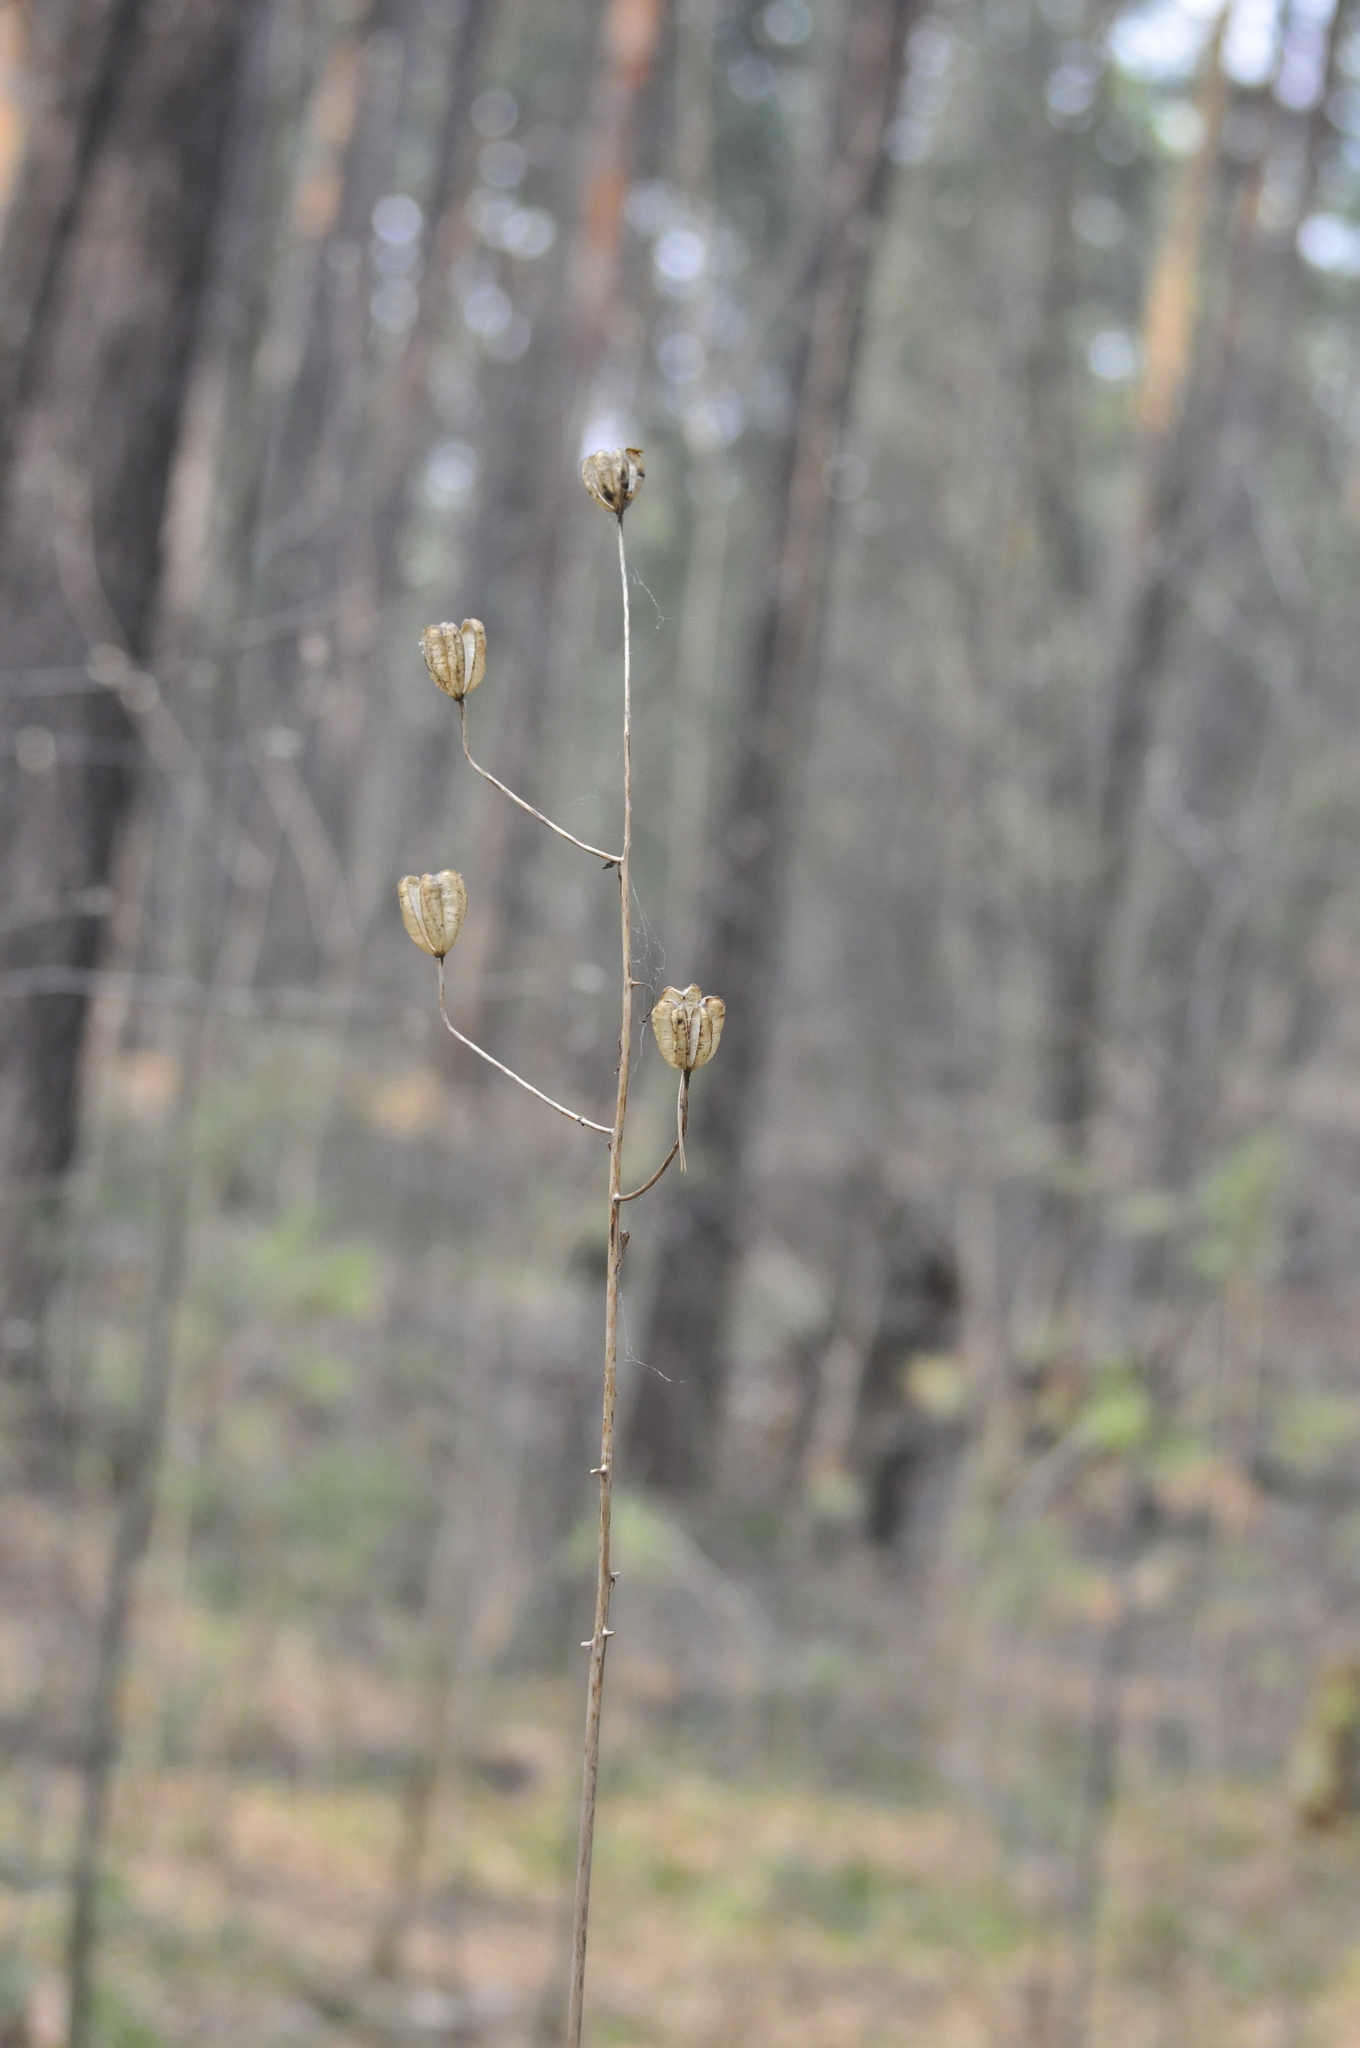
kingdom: Plantae
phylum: Tracheophyta
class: Liliopsida
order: Liliales
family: Liliaceae
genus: Lilium
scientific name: Lilium martagon
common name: Martagon lily
